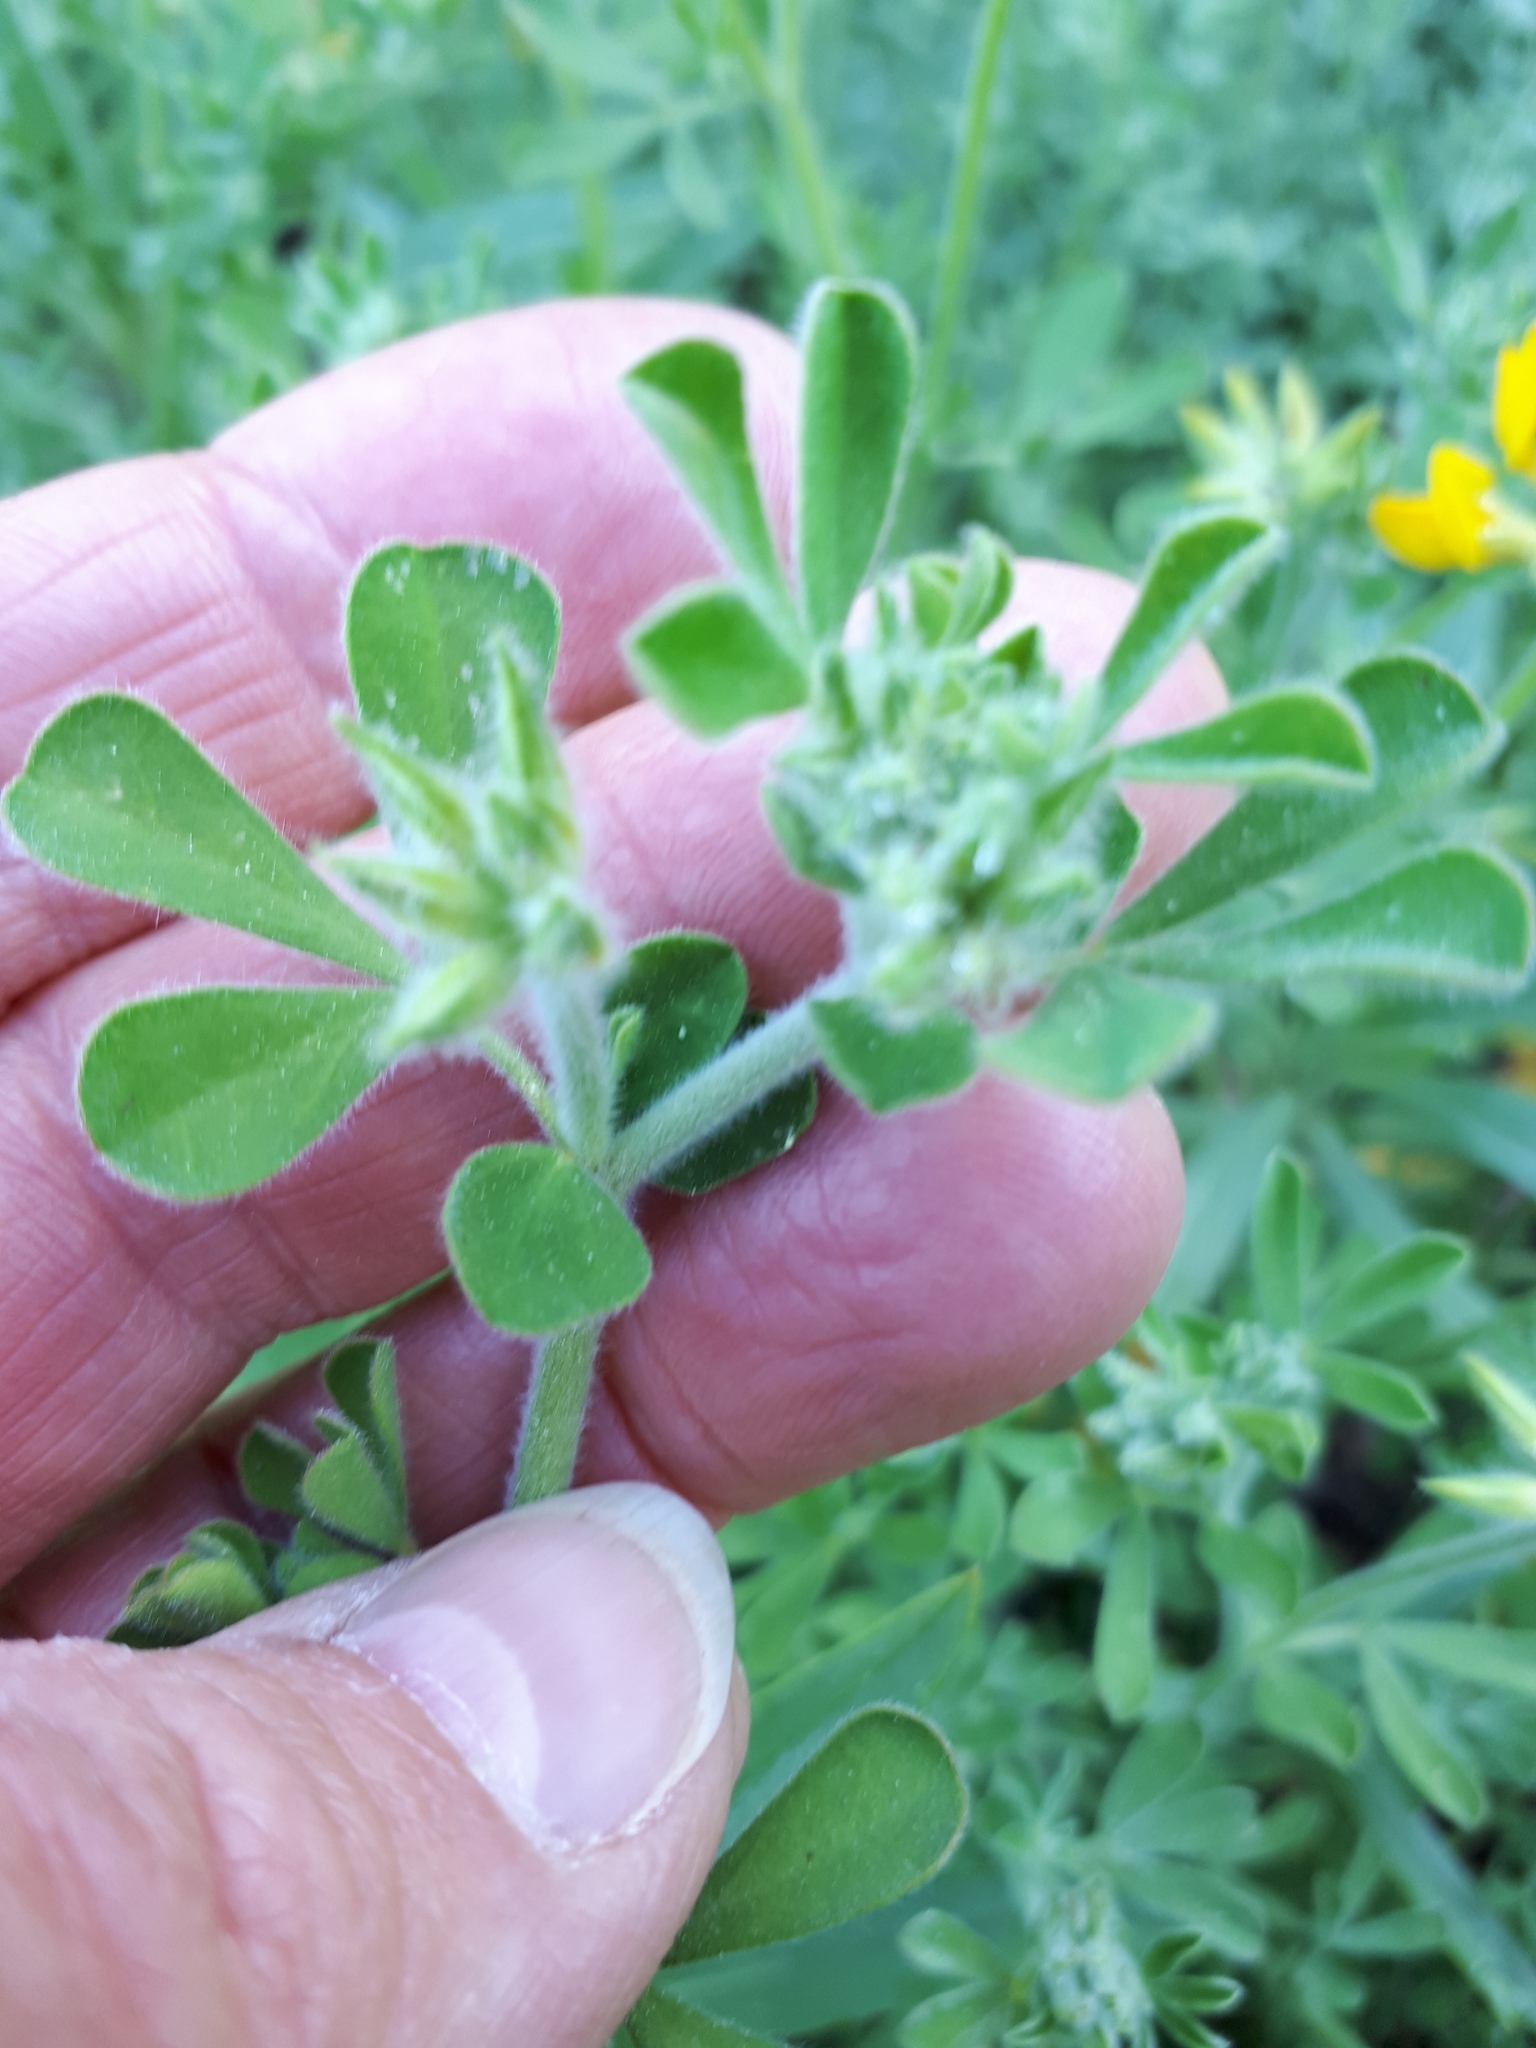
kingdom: Plantae
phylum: Tracheophyta
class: Magnoliopsida
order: Fabales
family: Fabaceae
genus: Lotus
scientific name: Lotus campylocladus
